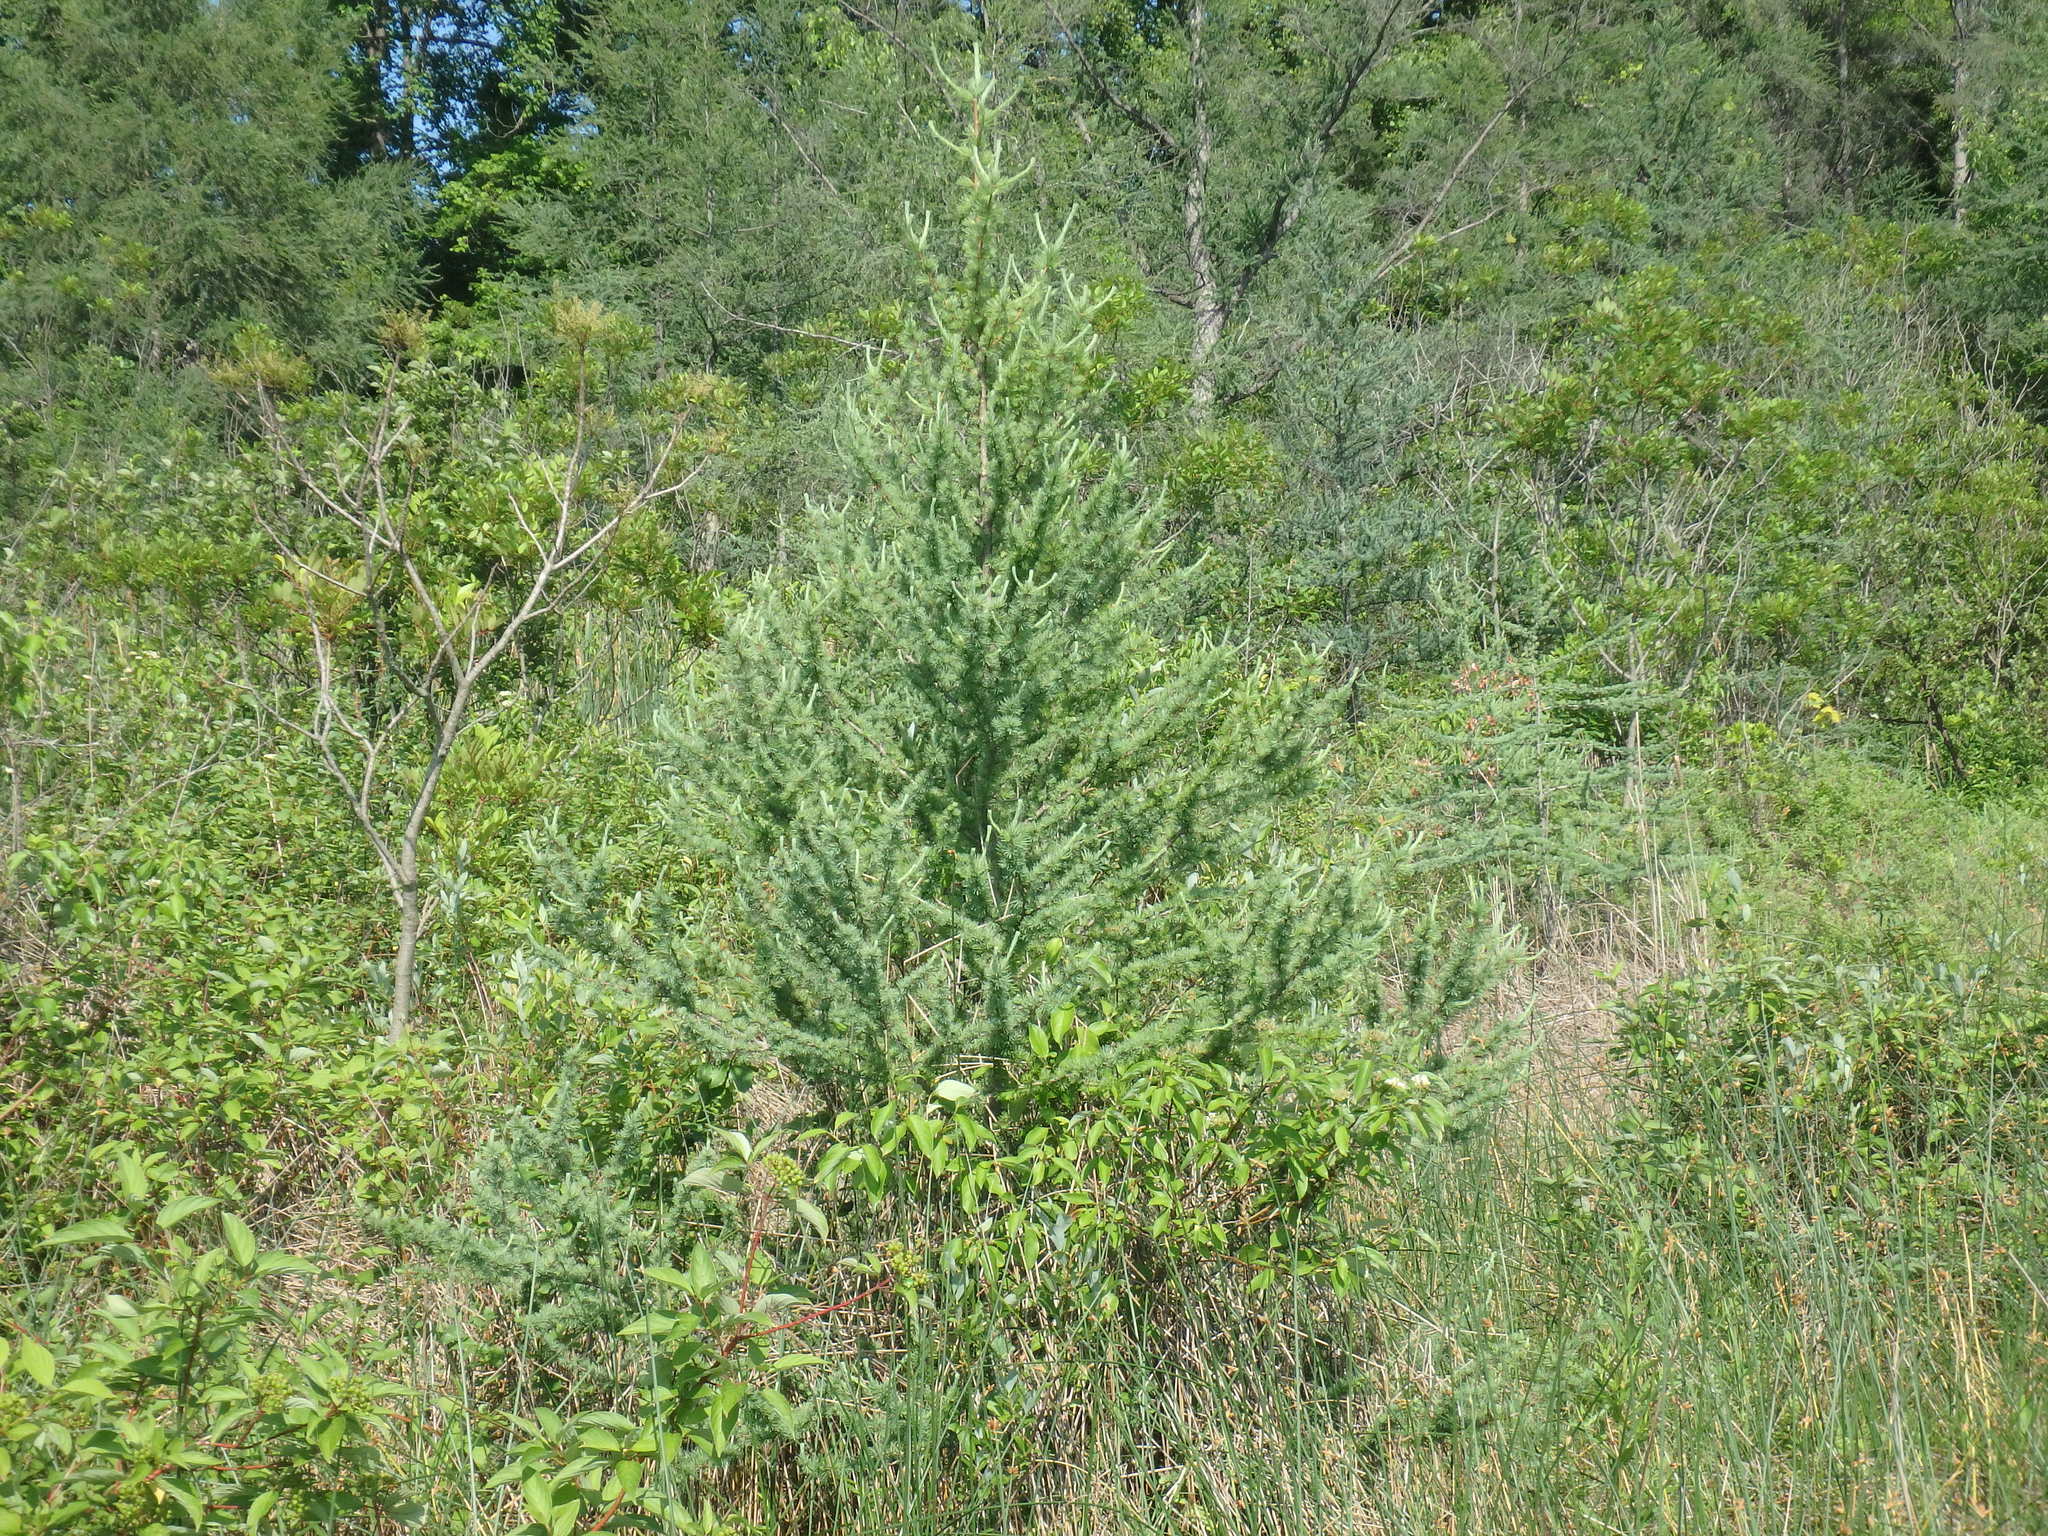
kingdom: Plantae
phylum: Tracheophyta
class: Pinopsida
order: Pinales
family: Pinaceae
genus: Larix
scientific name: Larix laricina
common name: American larch
